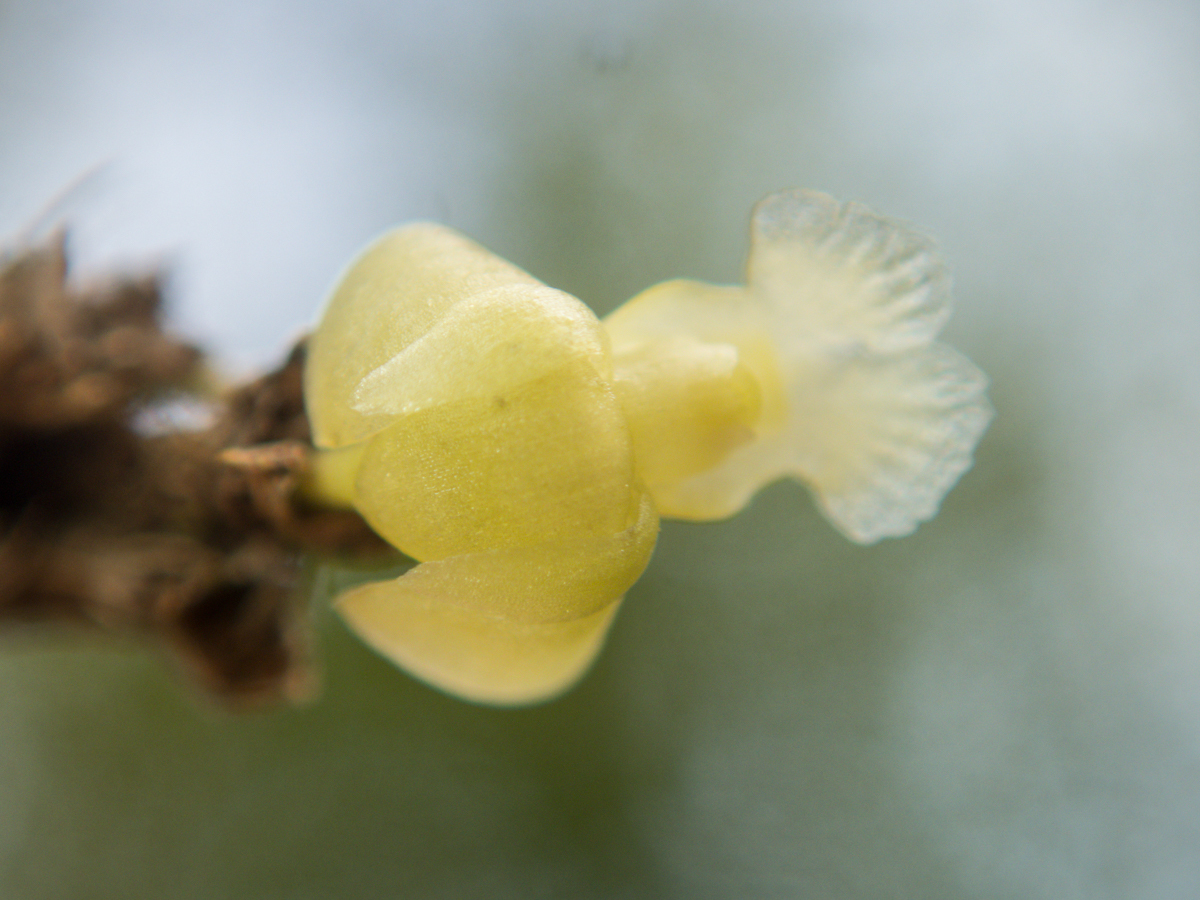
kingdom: Plantae
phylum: Tracheophyta
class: Liliopsida
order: Asparagales
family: Orchidaceae
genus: Dendrobium
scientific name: Dendrobium aloifolium
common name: Aloe-like dendrobium
